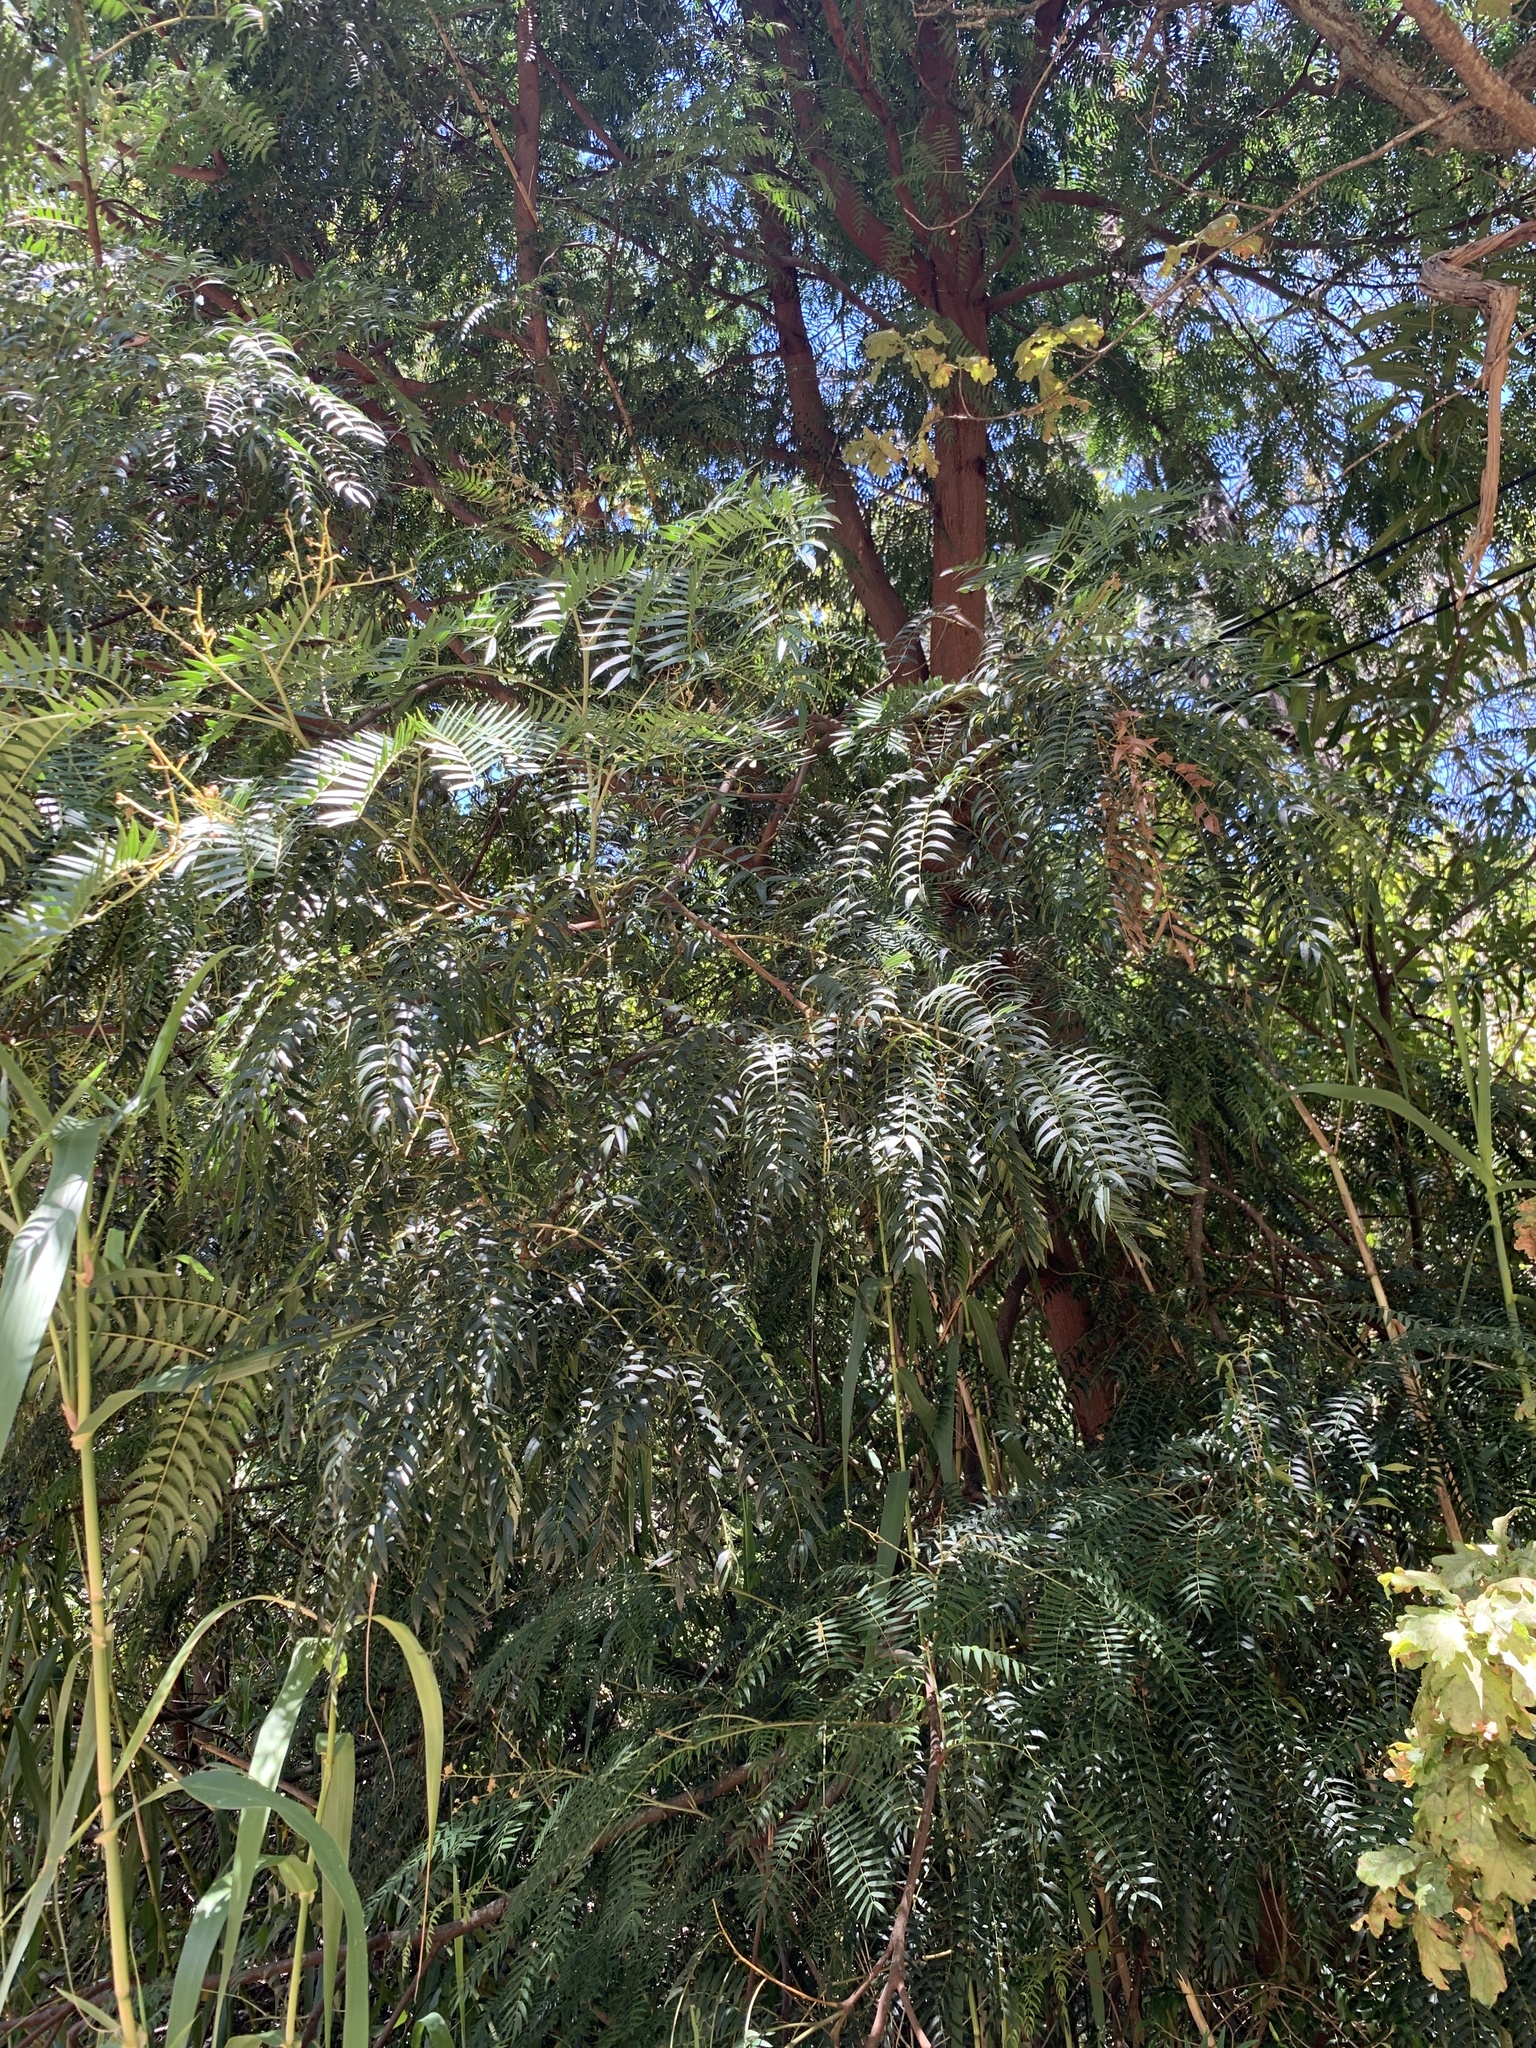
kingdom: Plantae
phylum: Tracheophyta
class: Magnoliopsida
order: Fabales
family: Fabaceae
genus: Acacia
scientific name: Acacia elata
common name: Cedar wattle
